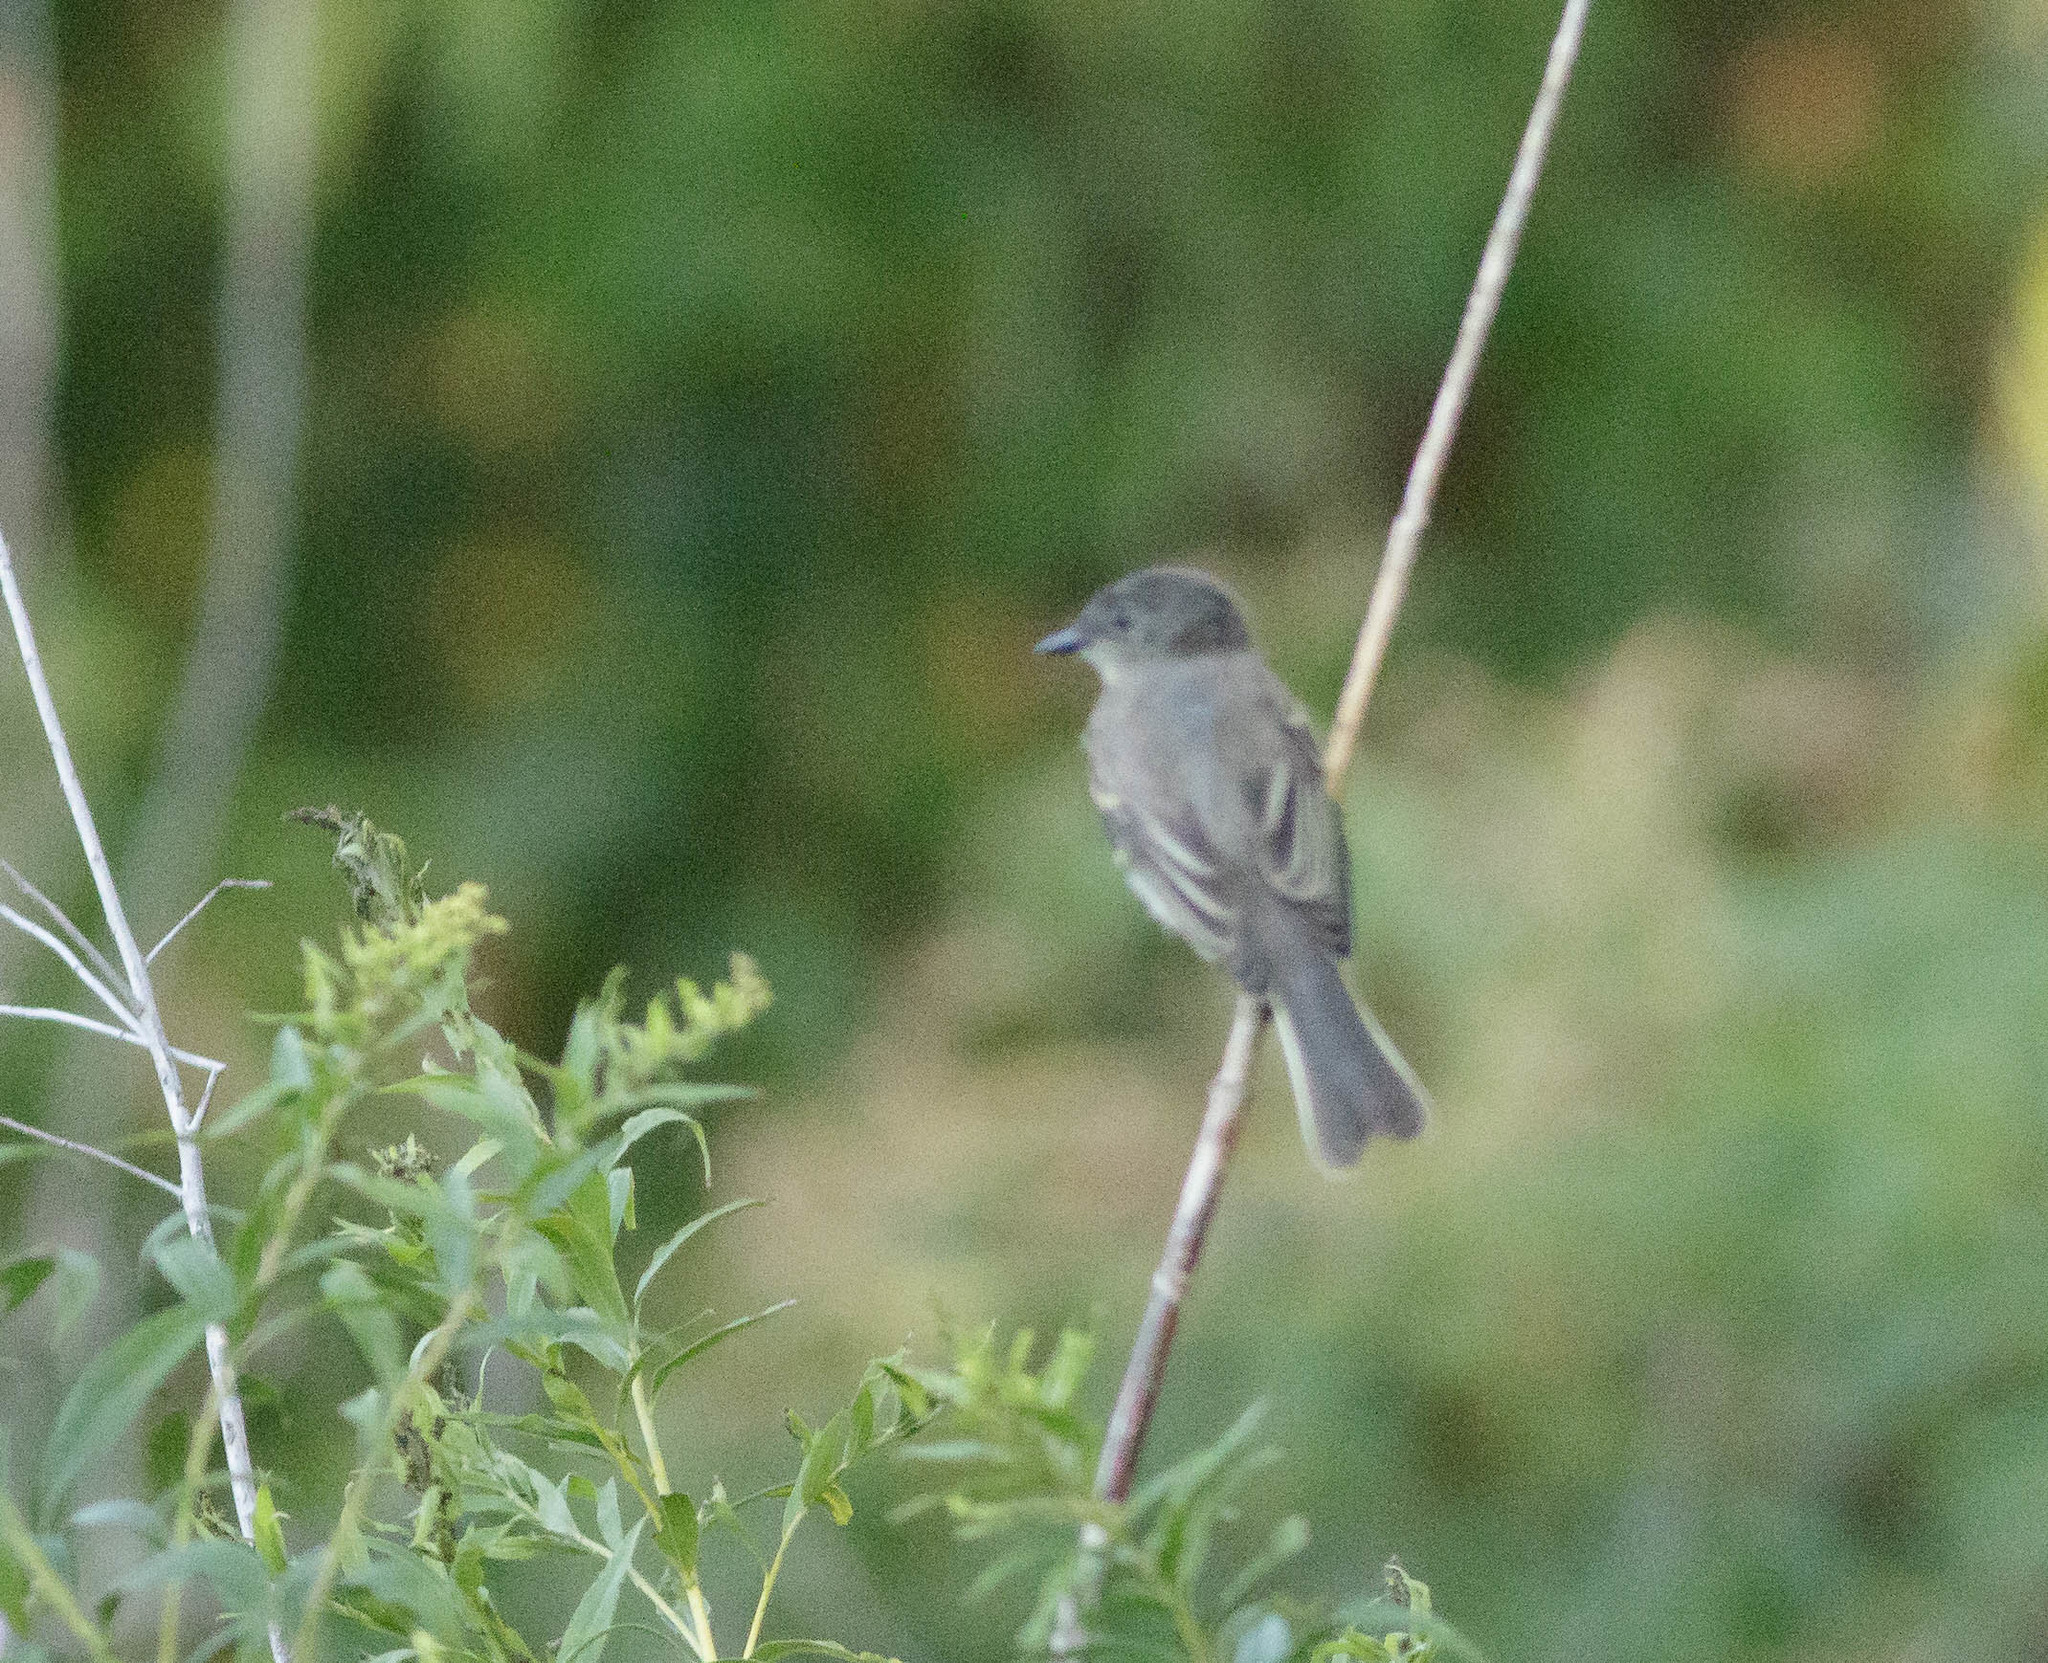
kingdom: Animalia
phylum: Chordata
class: Aves
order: Passeriformes
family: Tyrannidae
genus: Sayornis
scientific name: Sayornis phoebe
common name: Eastern phoebe
